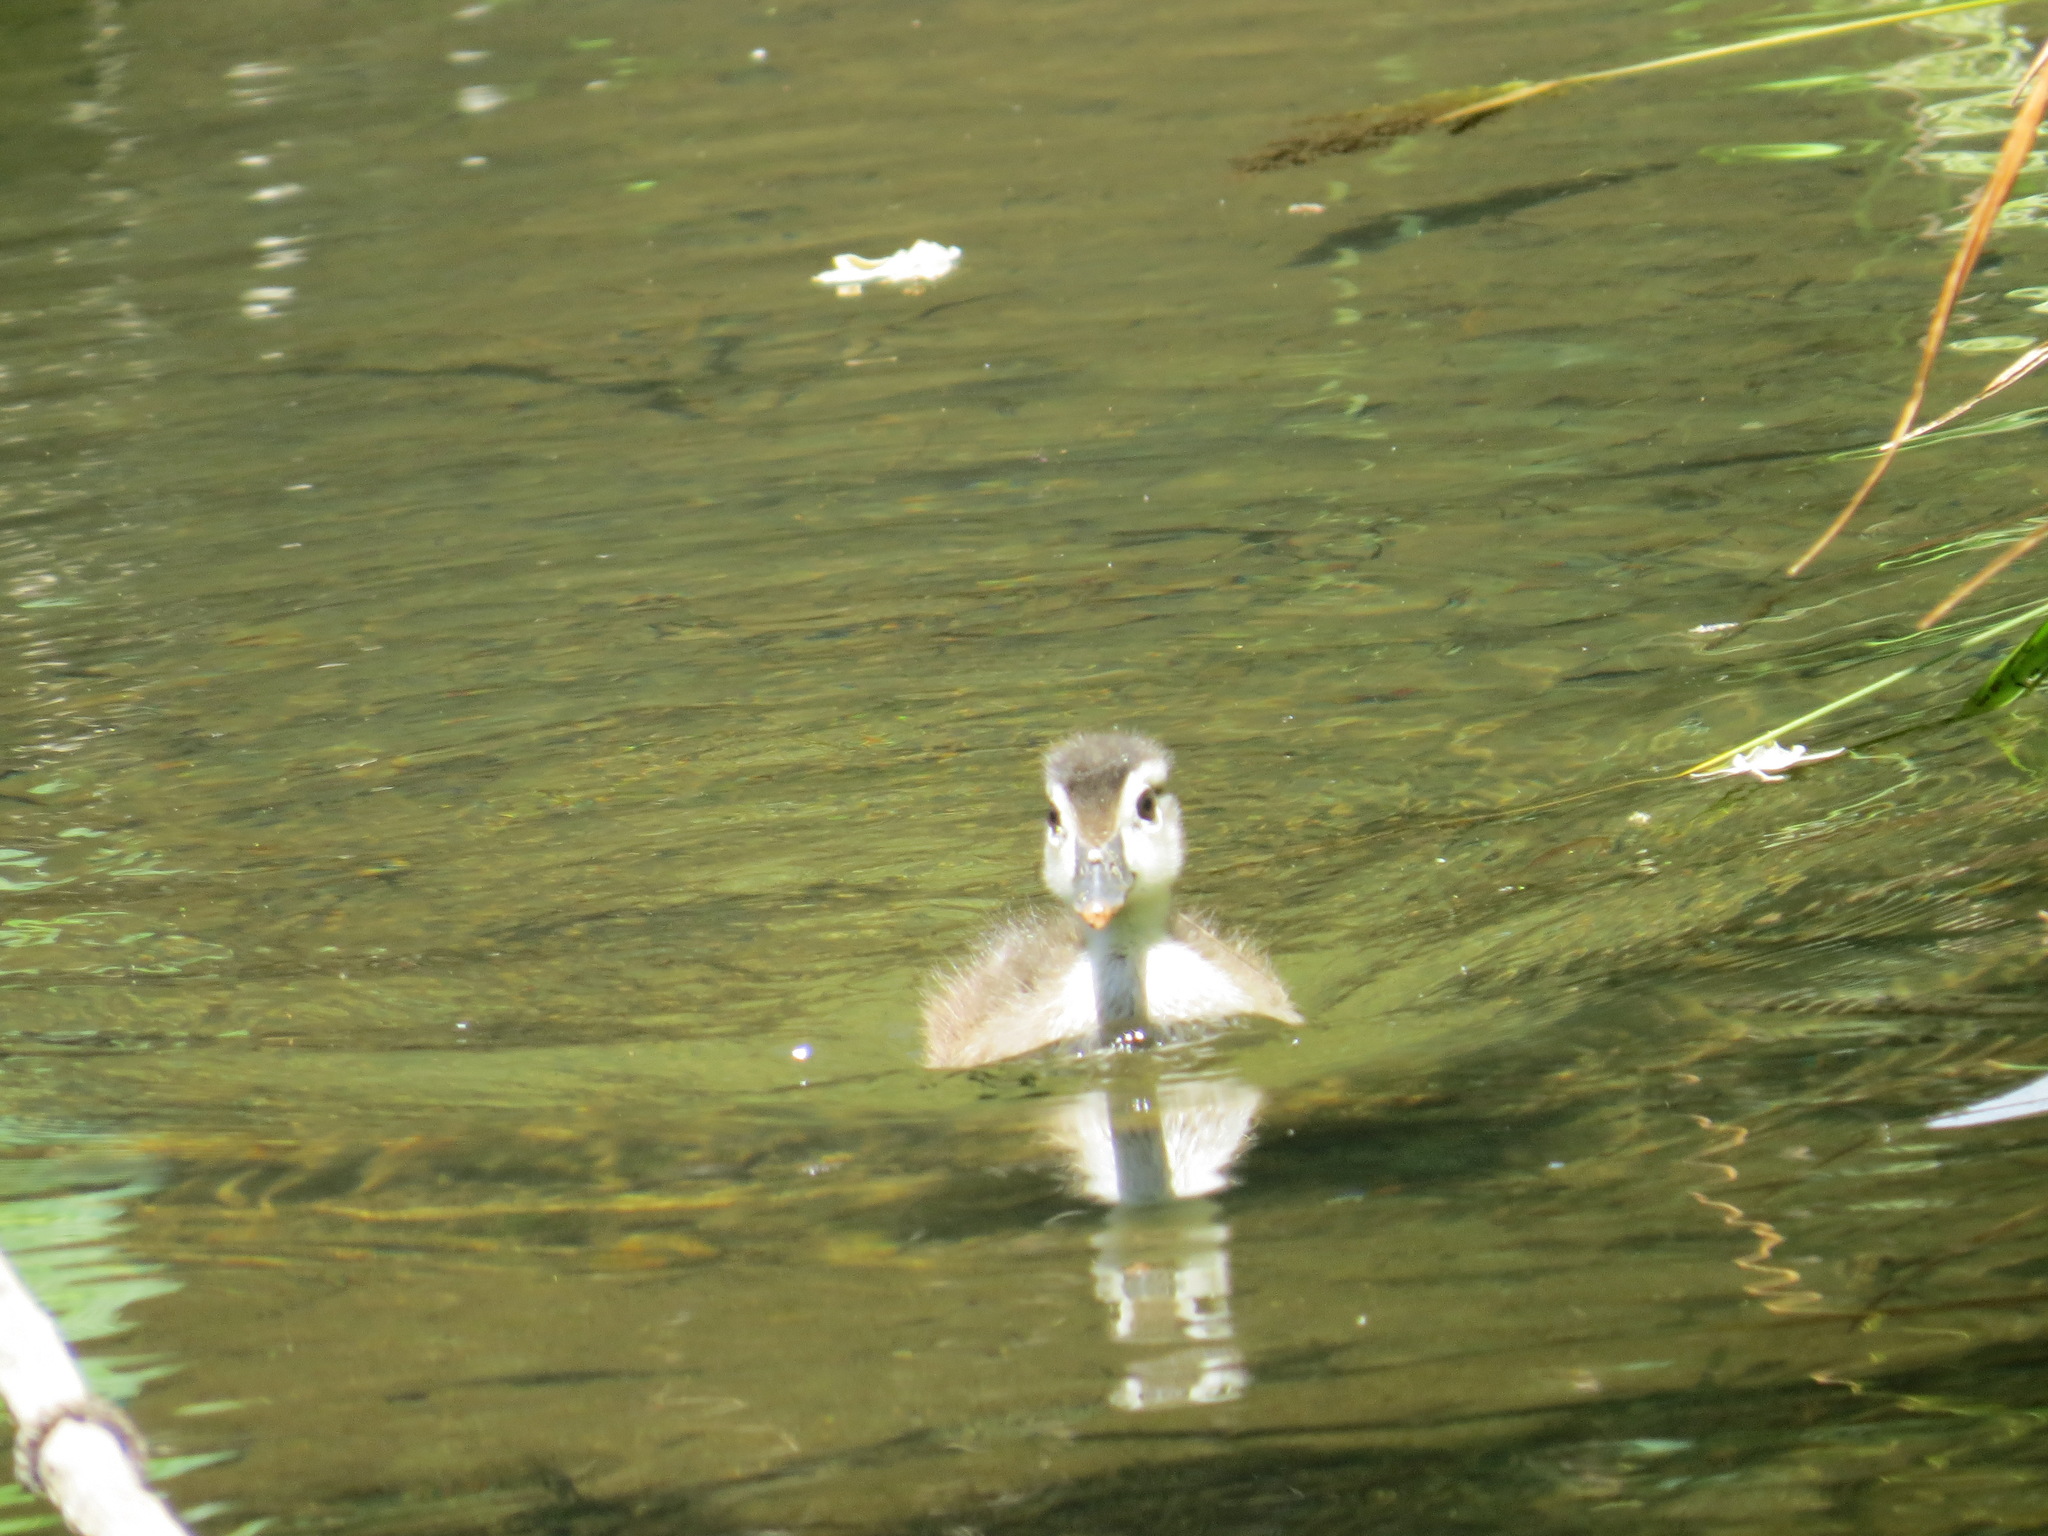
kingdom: Animalia
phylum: Chordata
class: Aves
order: Anseriformes
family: Anatidae
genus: Aix
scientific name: Aix sponsa
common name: Wood duck
